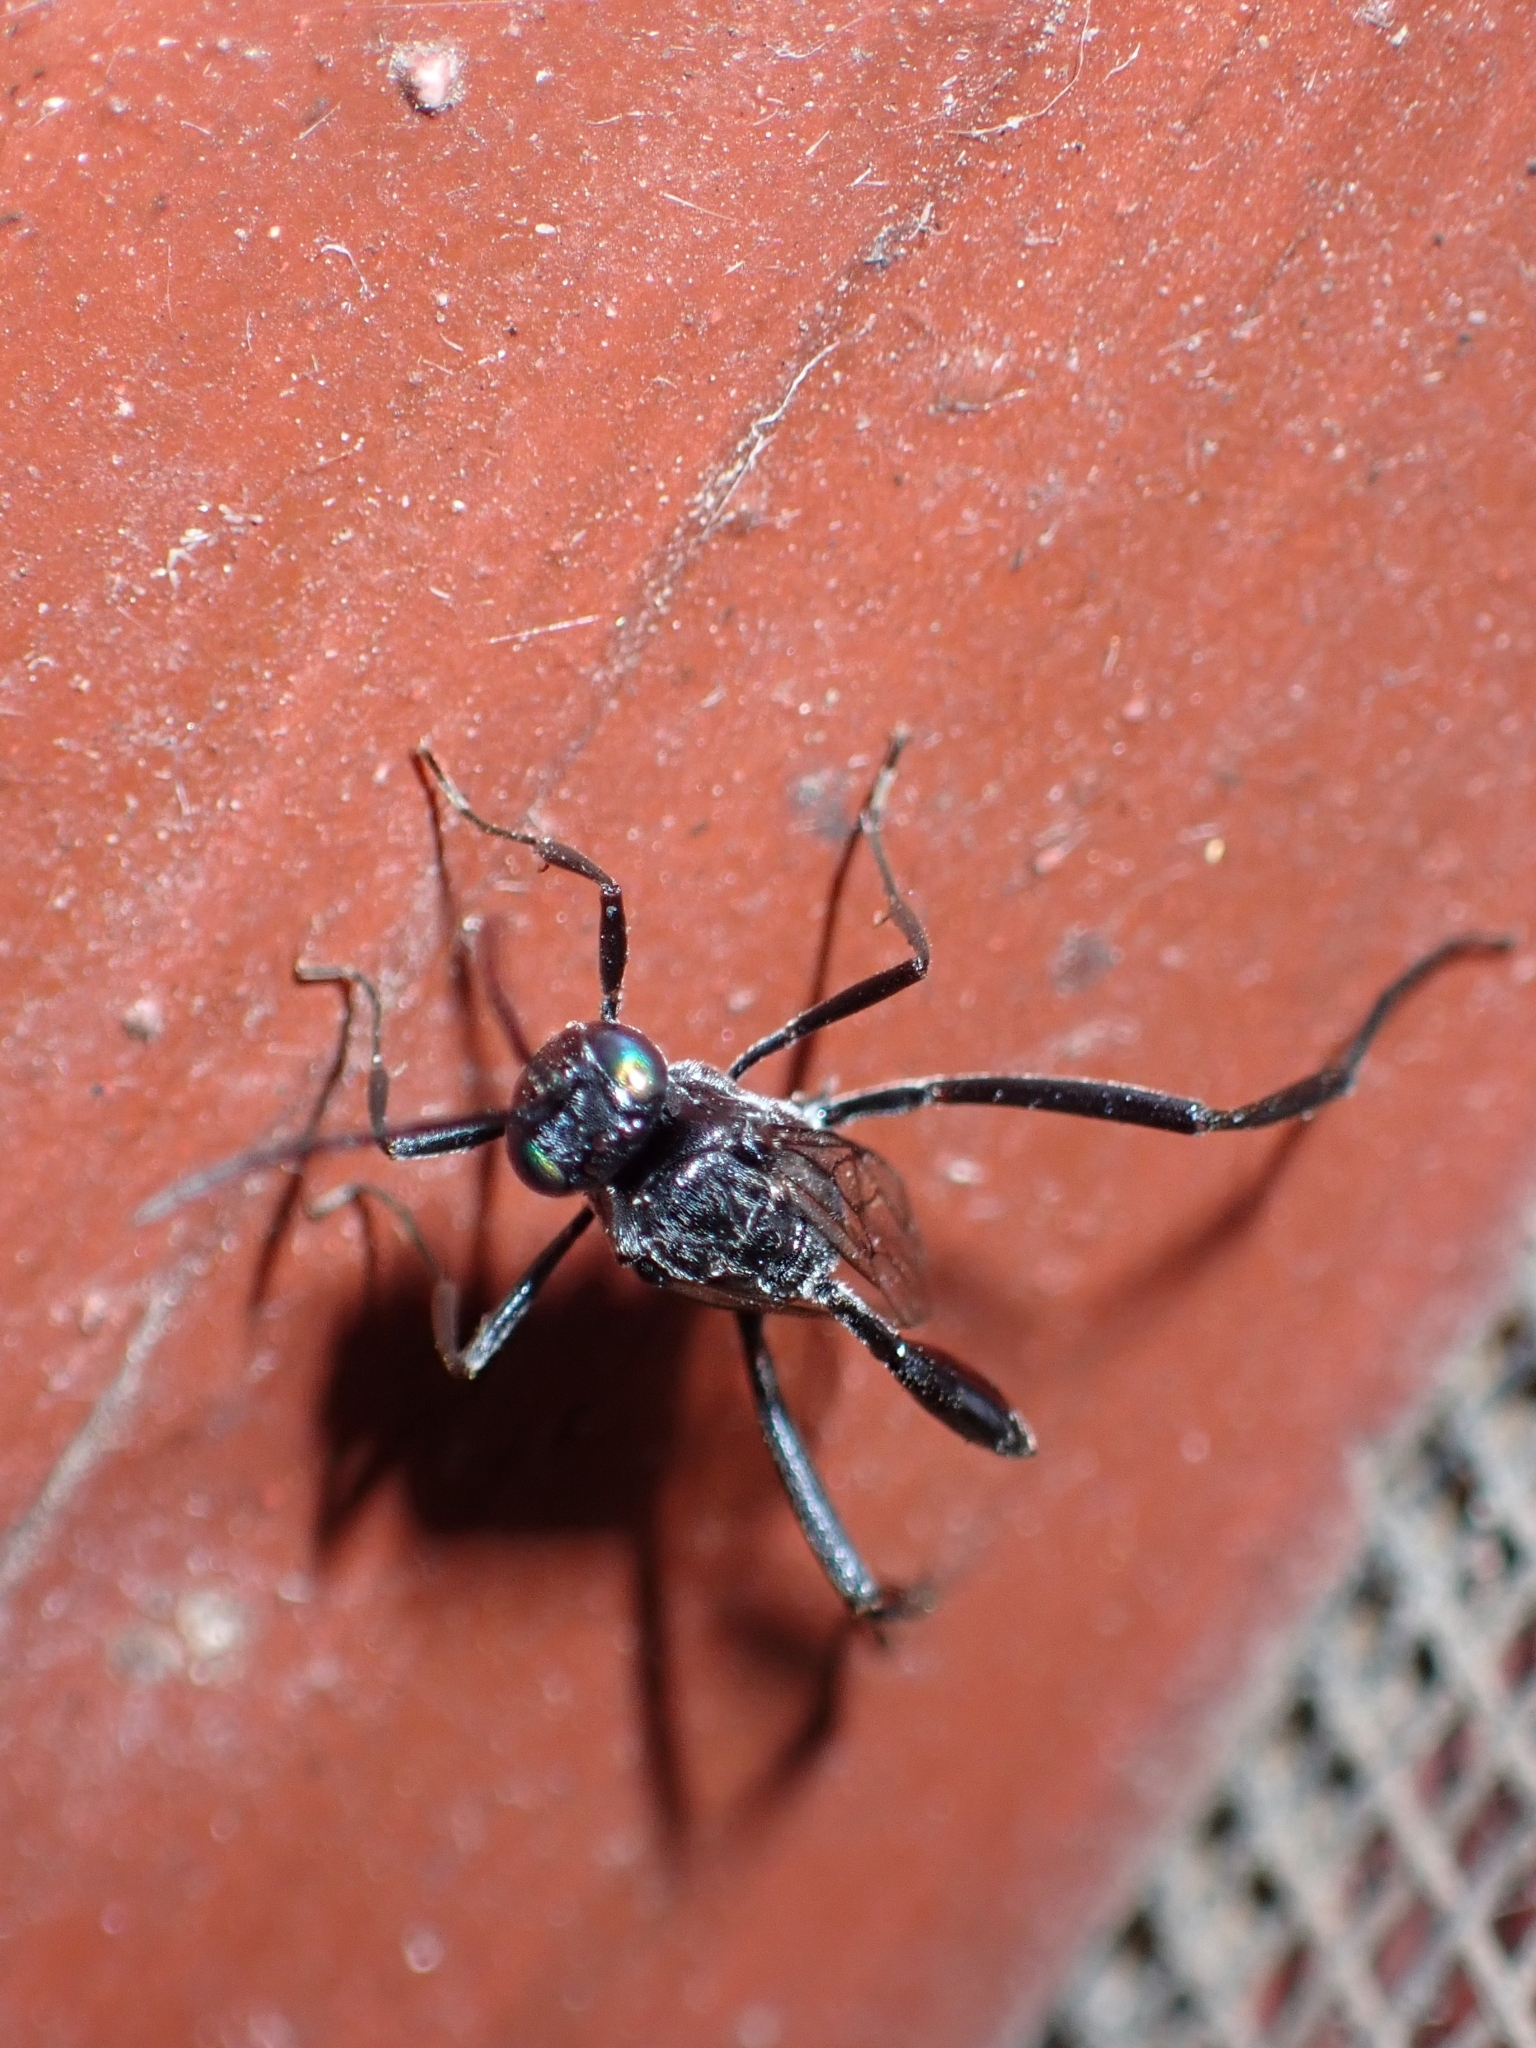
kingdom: Animalia
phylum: Arthropoda
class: Insecta
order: Hymenoptera
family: Evaniidae
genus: Evania
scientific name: Evania appendigaster
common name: Ensign wasp
